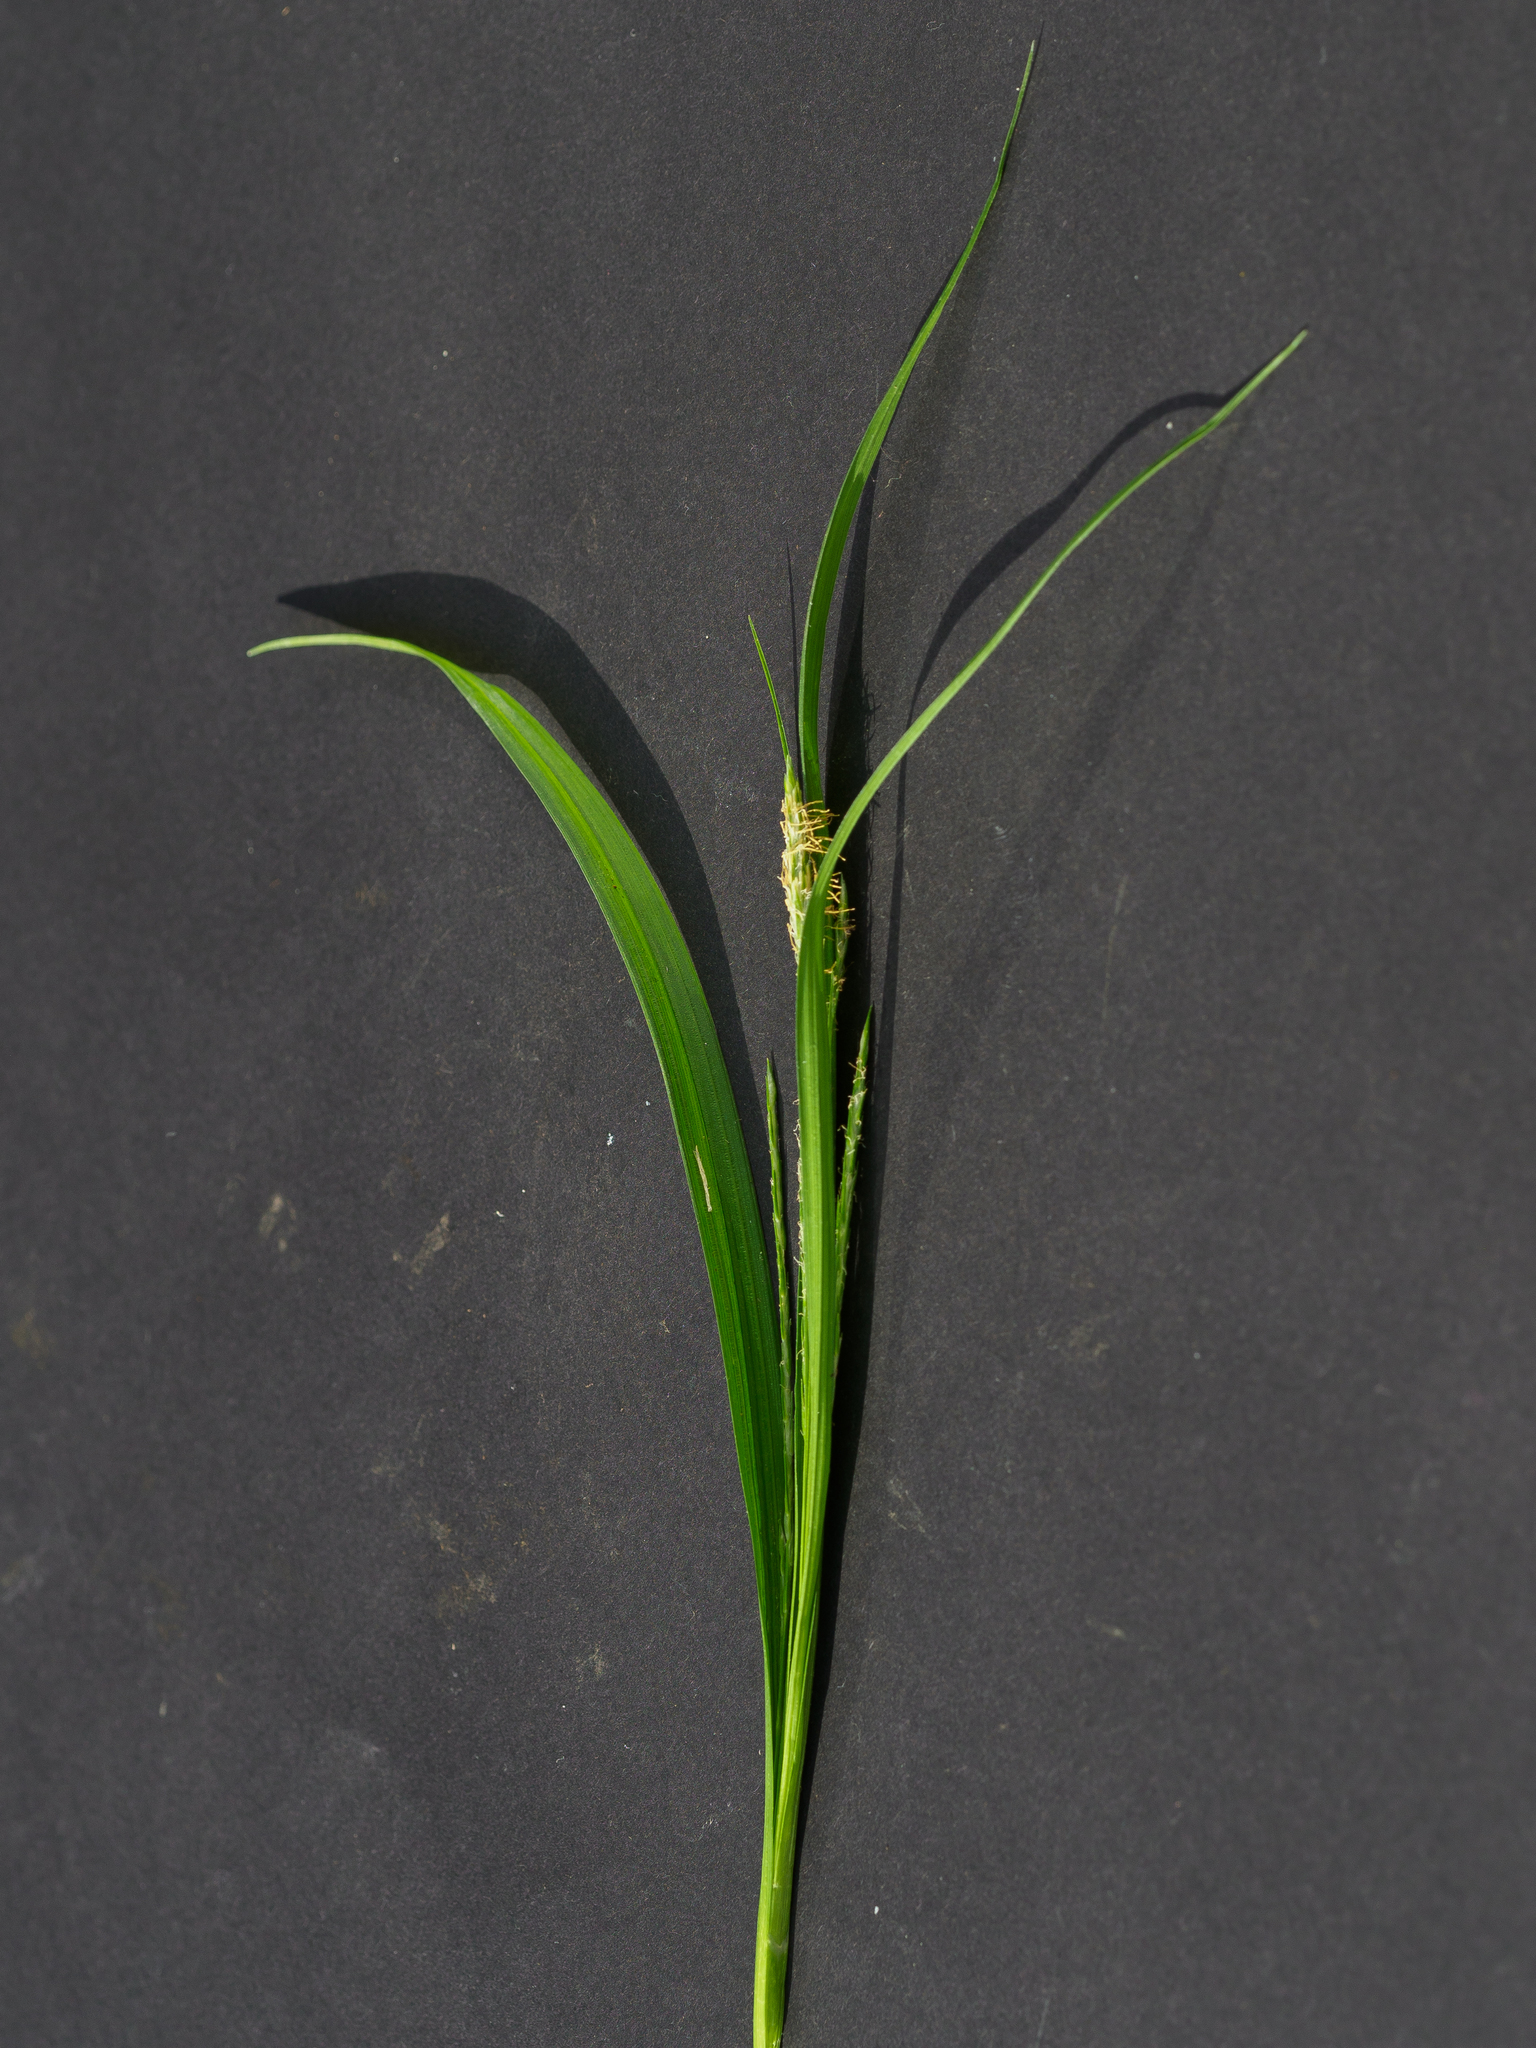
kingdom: Plantae
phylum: Tracheophyta
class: Liliopsida
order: Poales
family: Cyperaceae
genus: Carex
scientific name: Carex sylvatica
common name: Wood-sedge
